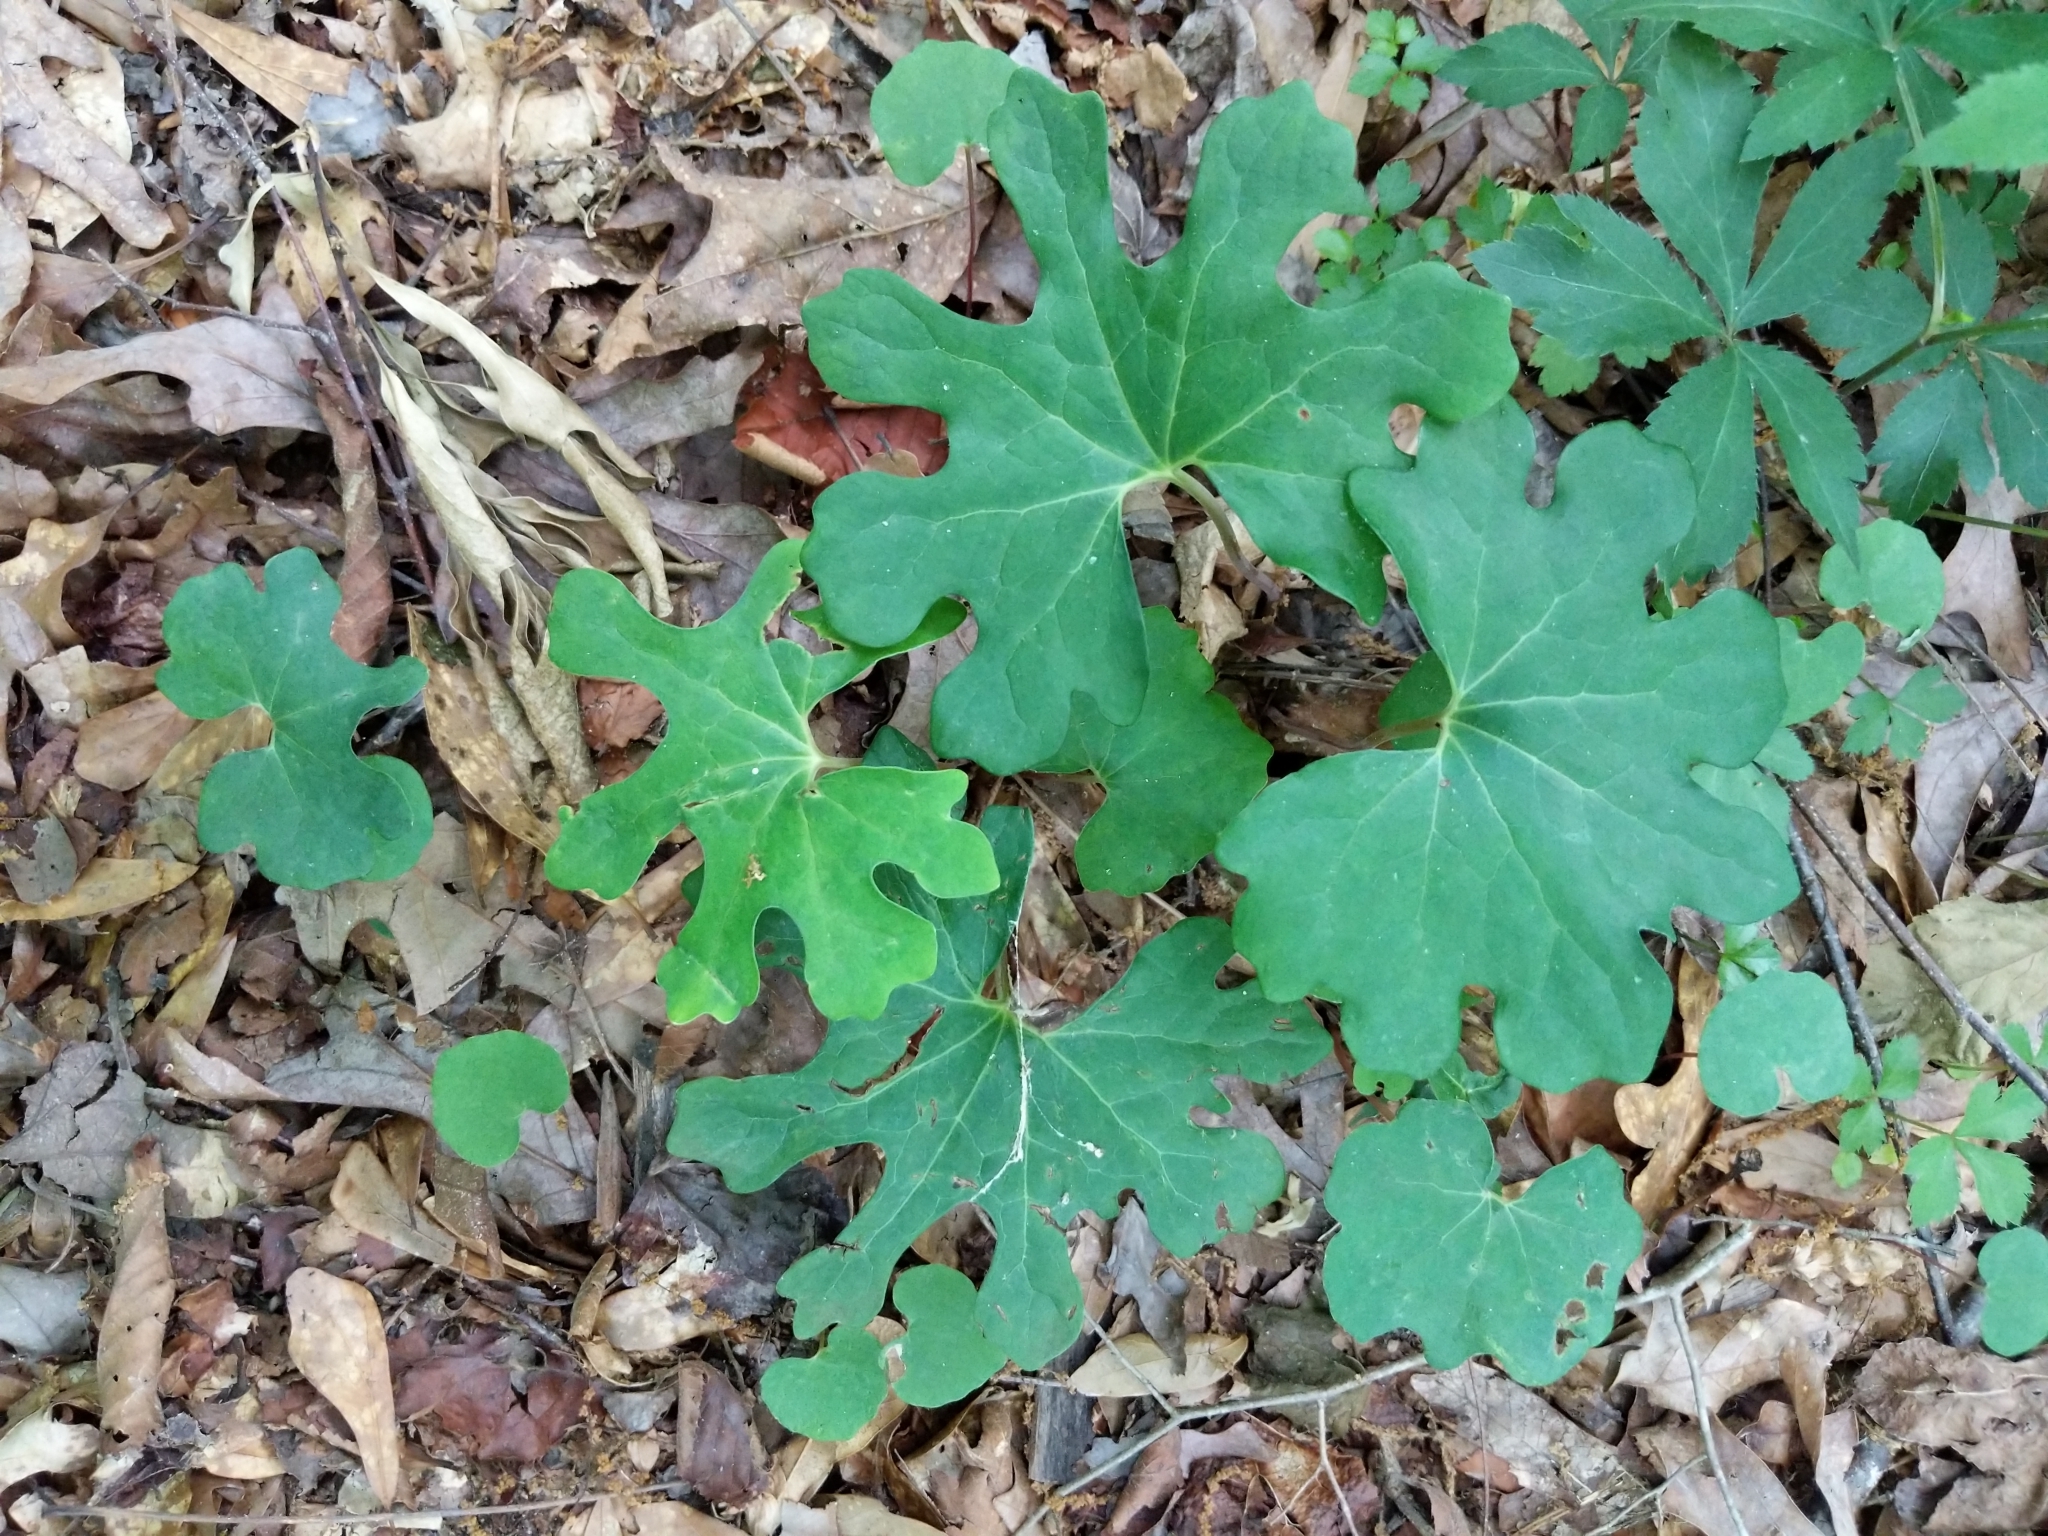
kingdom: Plantae
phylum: Tracheophyta
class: Magnoliopsida
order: Ranunculales
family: Papaveraceae
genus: Sanguinaria
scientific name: Sanguinaria canadensis
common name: Bloodroot
